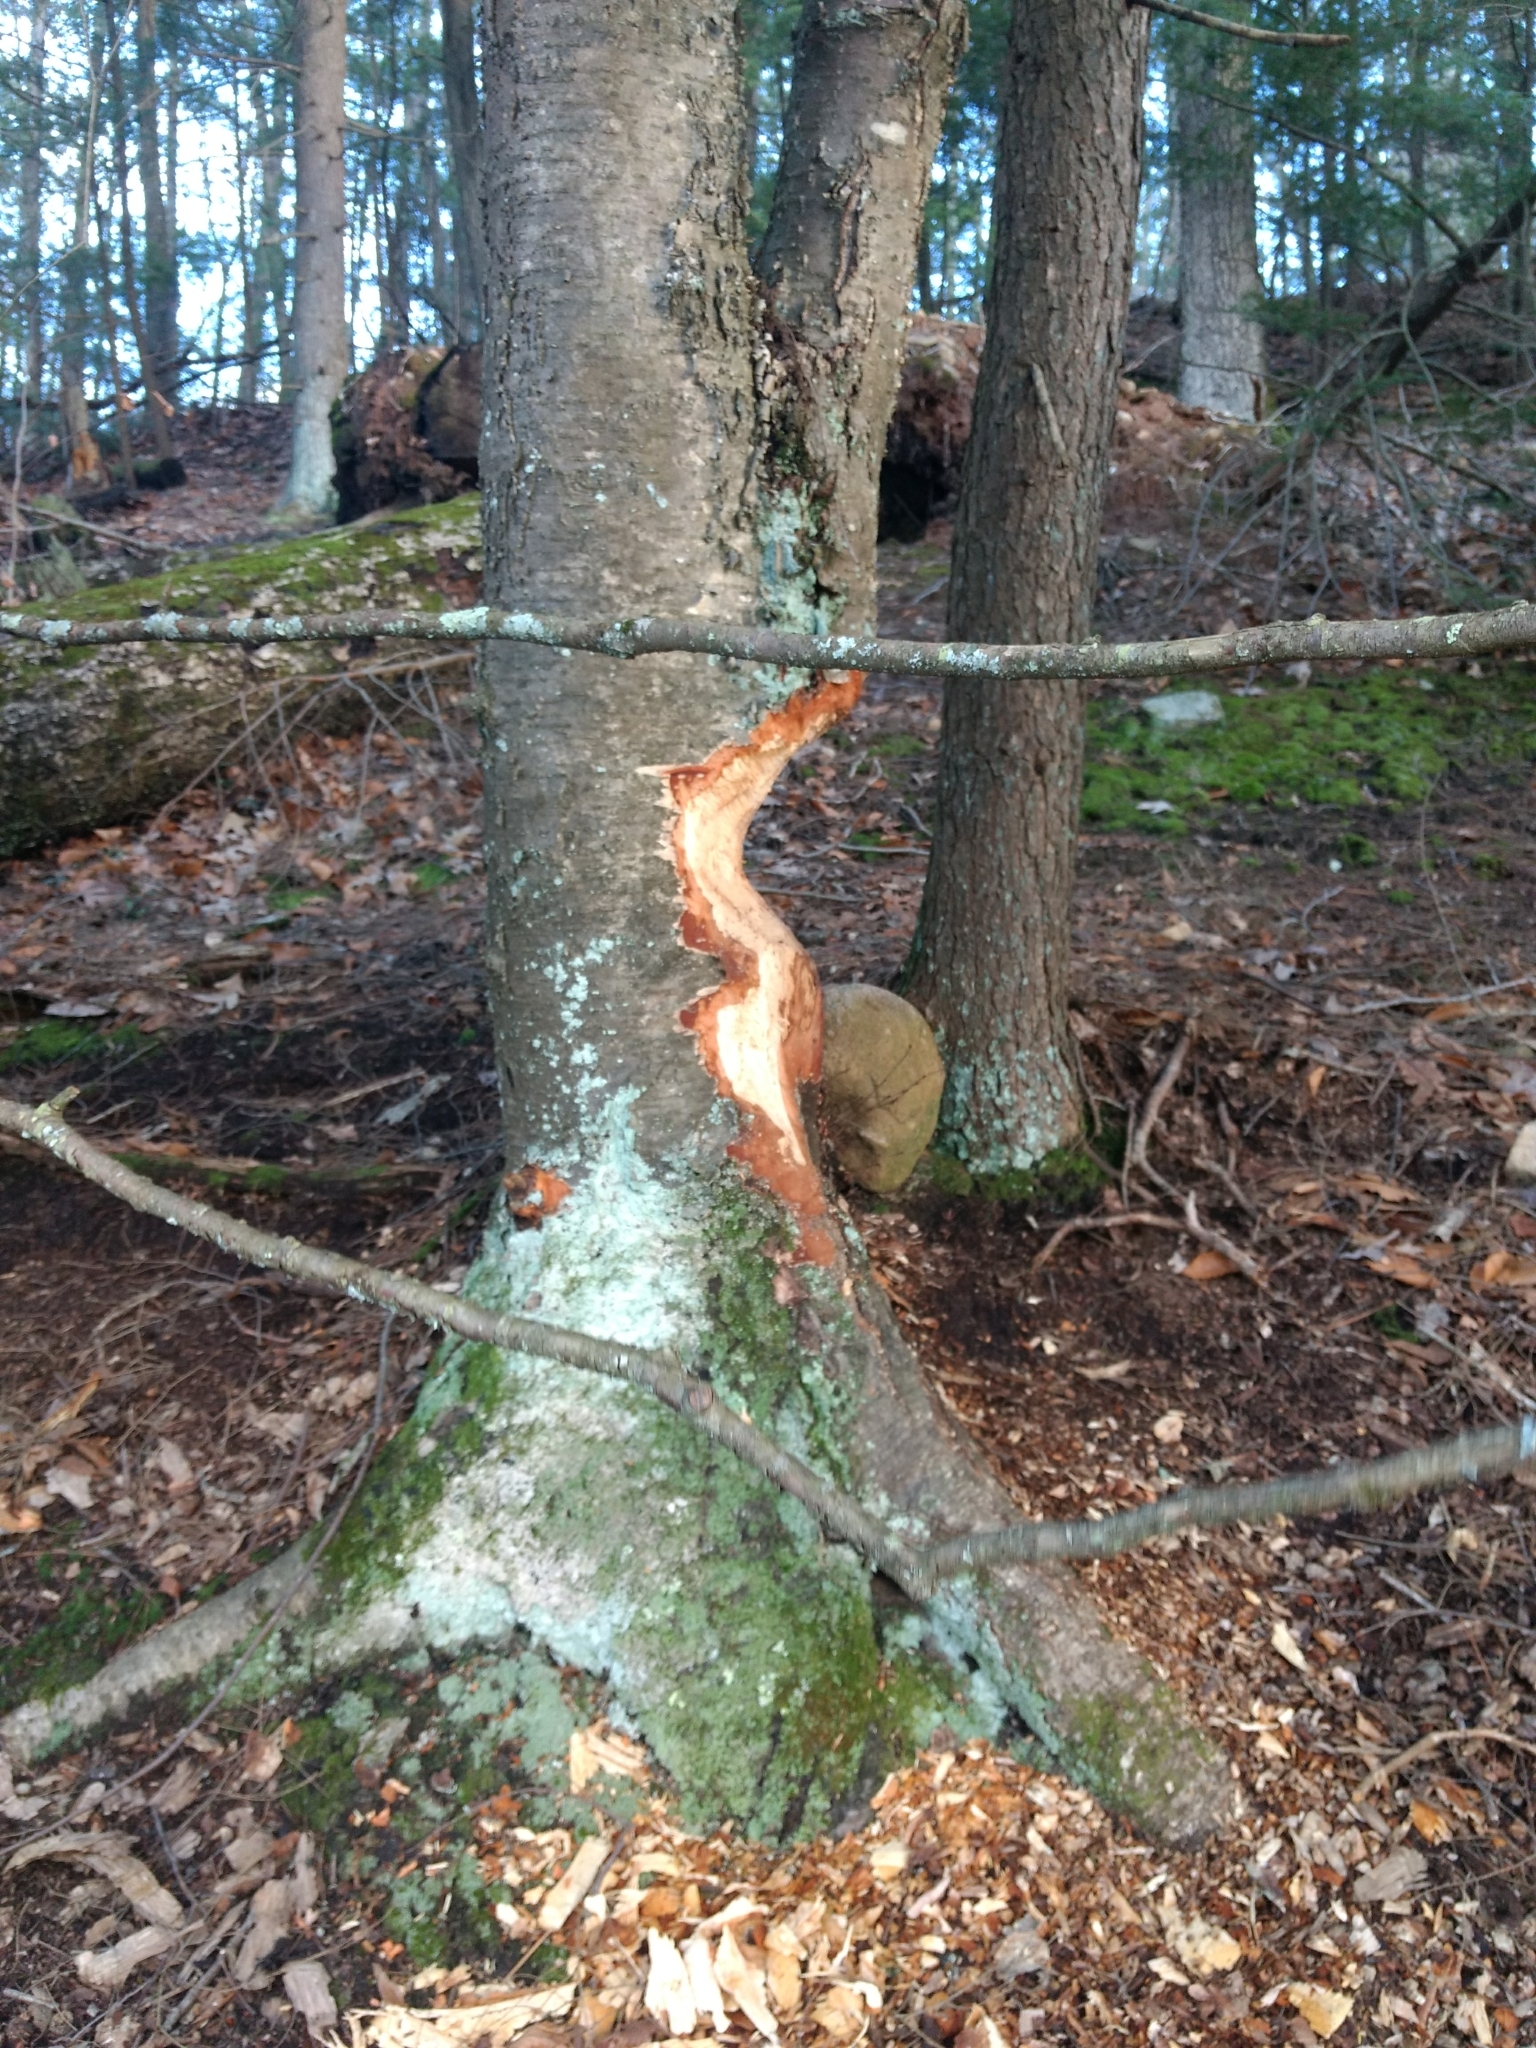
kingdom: Animalia
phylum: Chordata
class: Mammalia
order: Rodentia
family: Castoridae
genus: Castor
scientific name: Castor canadensis
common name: American beaver
